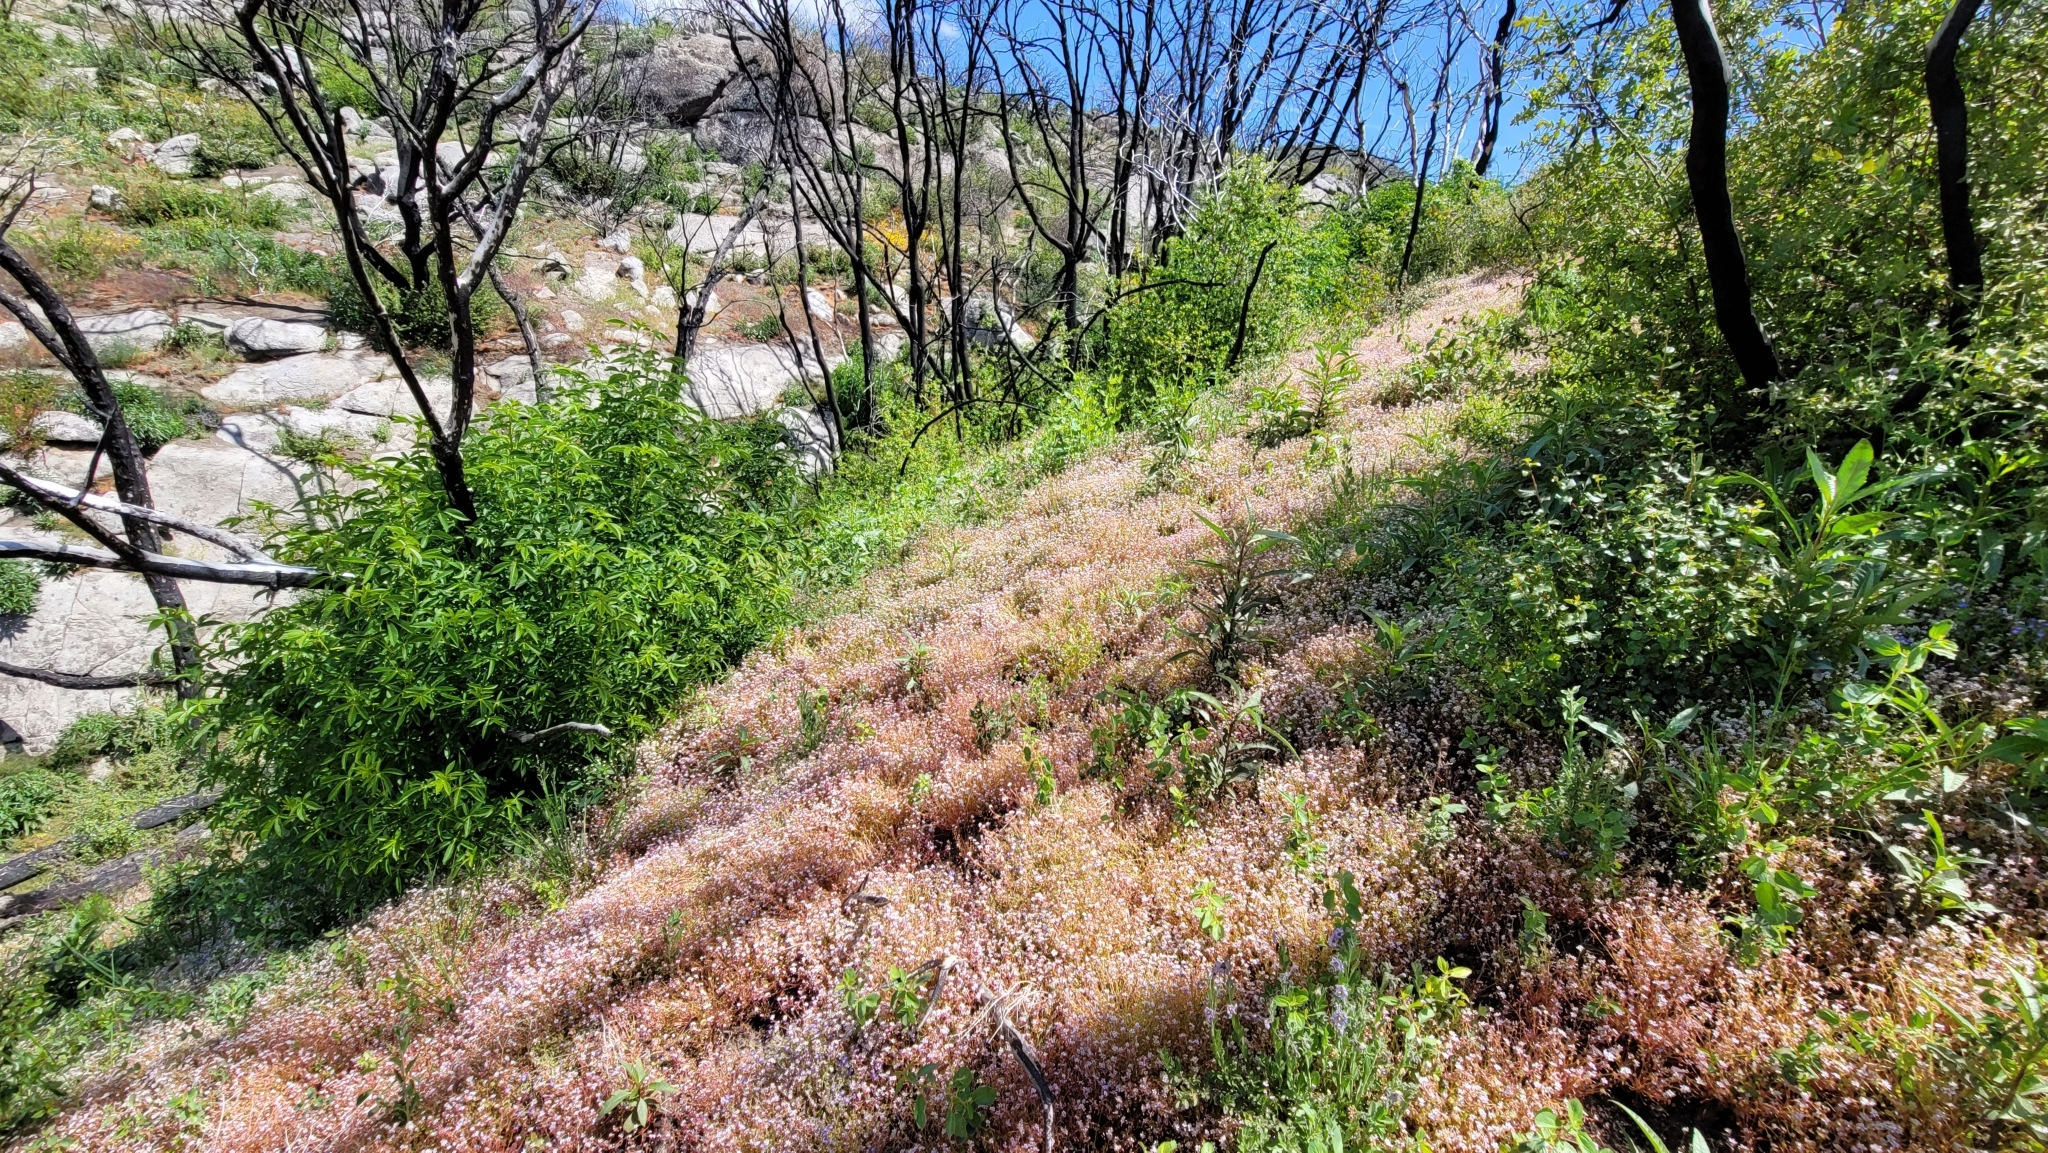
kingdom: Plantae
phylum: Tracheophyta
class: Magnoliopsida
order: Caryophyllales
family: Montiaceae
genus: Claytonia
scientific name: Claytonia parviflora
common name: Indian-lettuce
